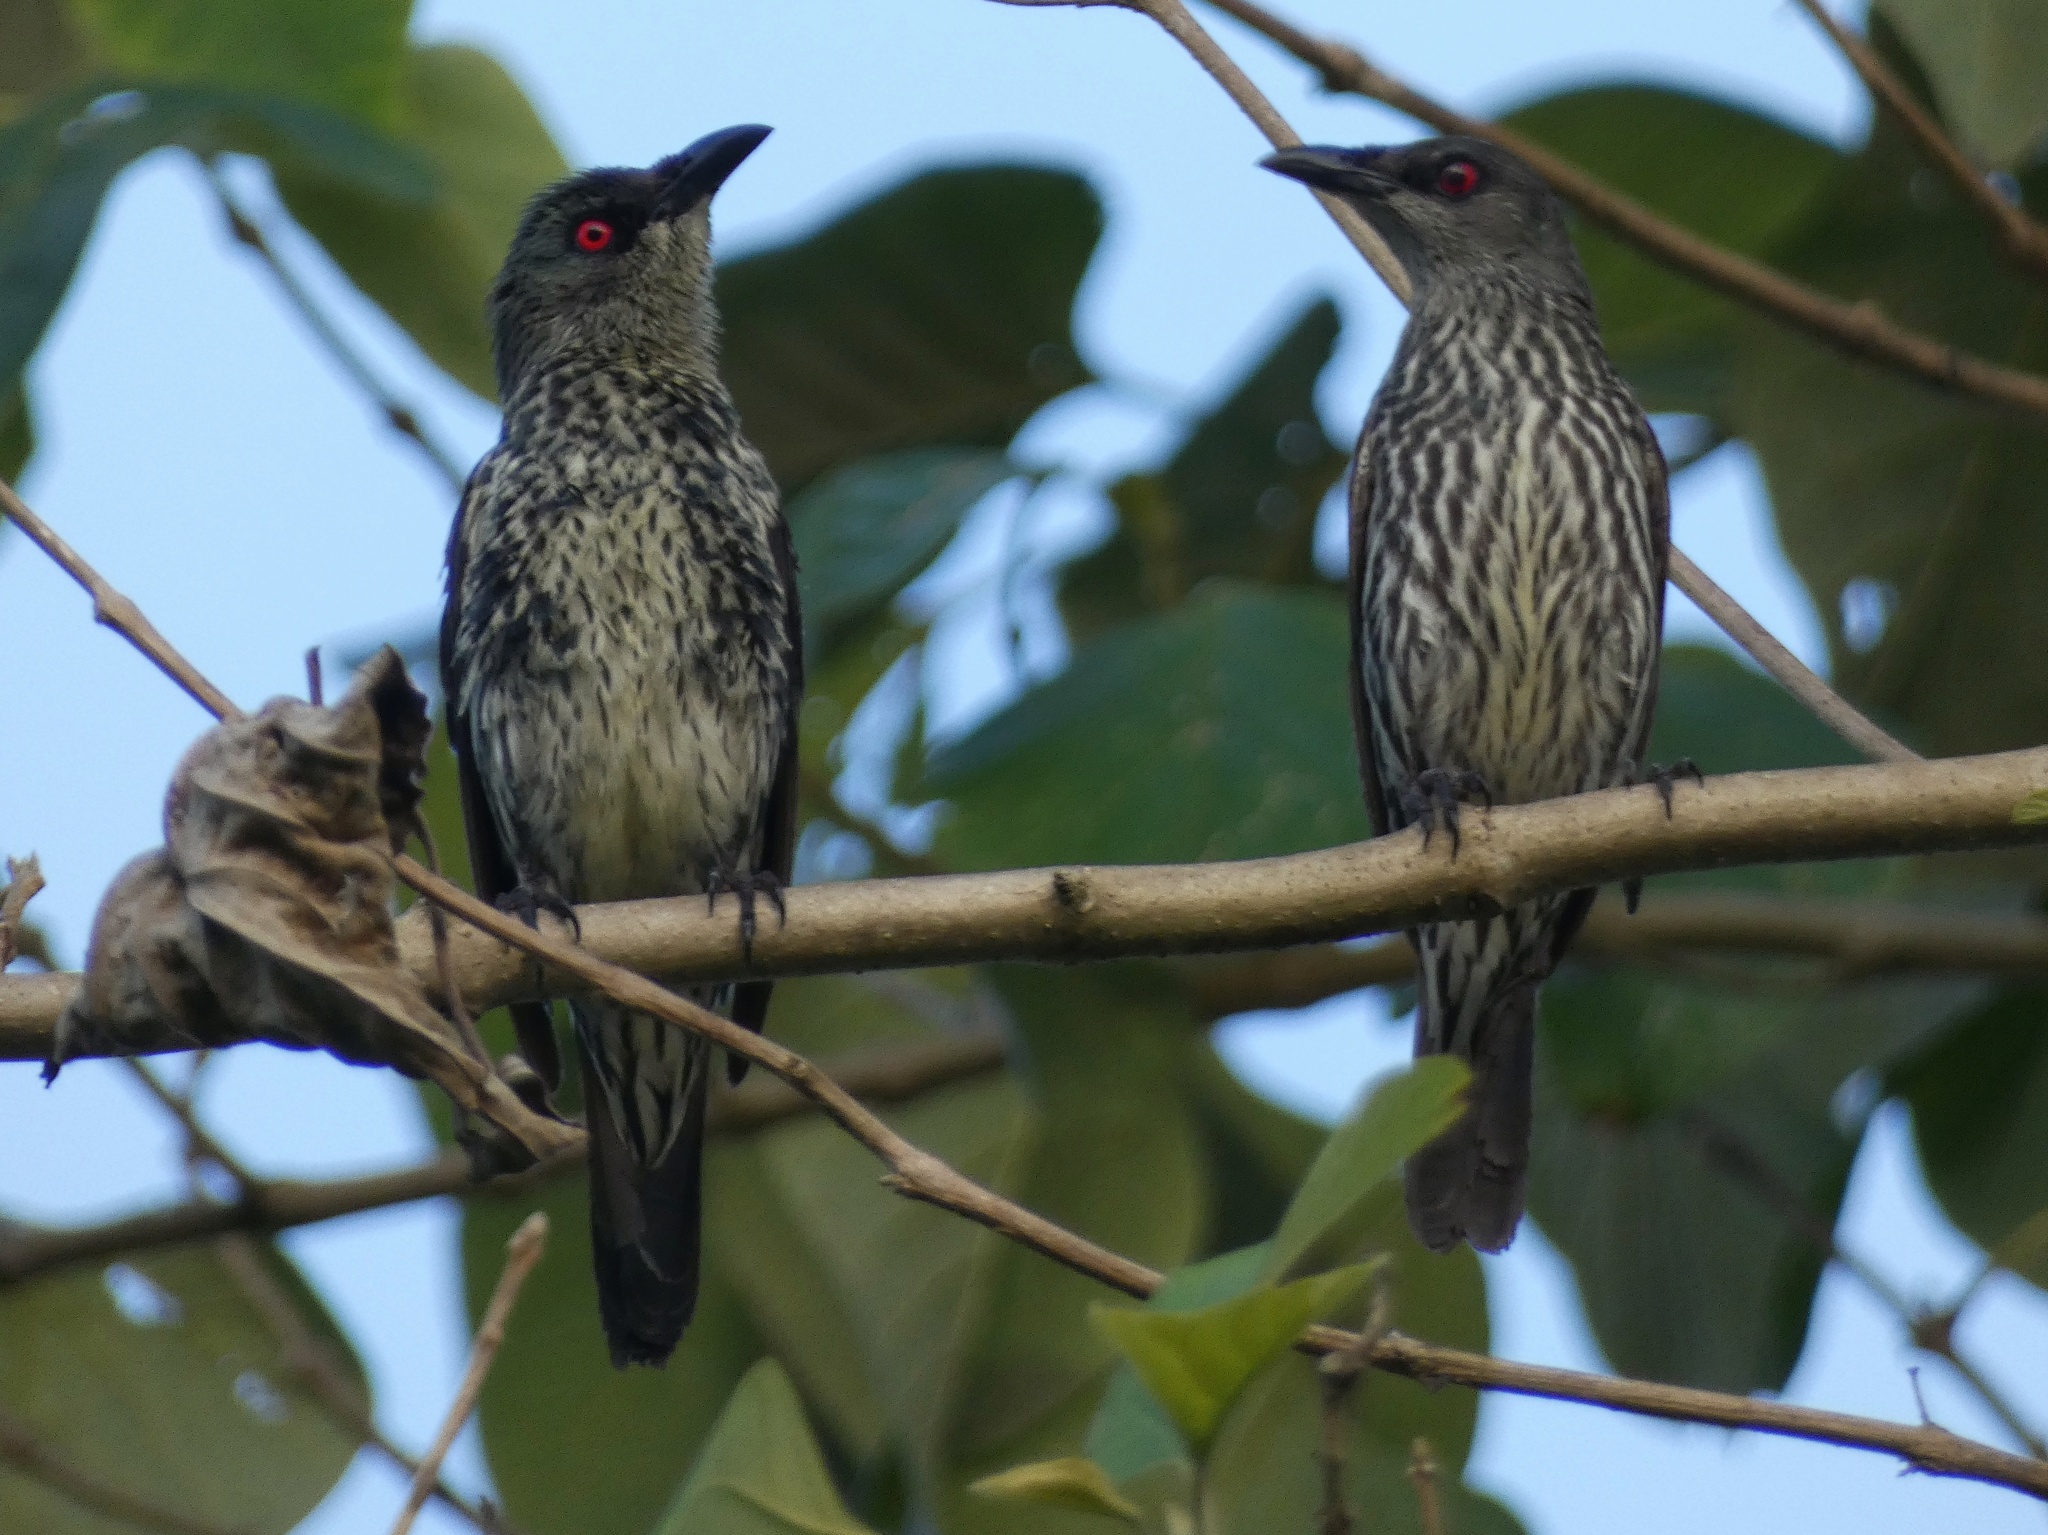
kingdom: Animalia
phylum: Chordata
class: Aves
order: Passeriformes
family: Sturnidae
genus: Aplonis
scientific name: Aplonis panayensis
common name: Asian glossy starling
